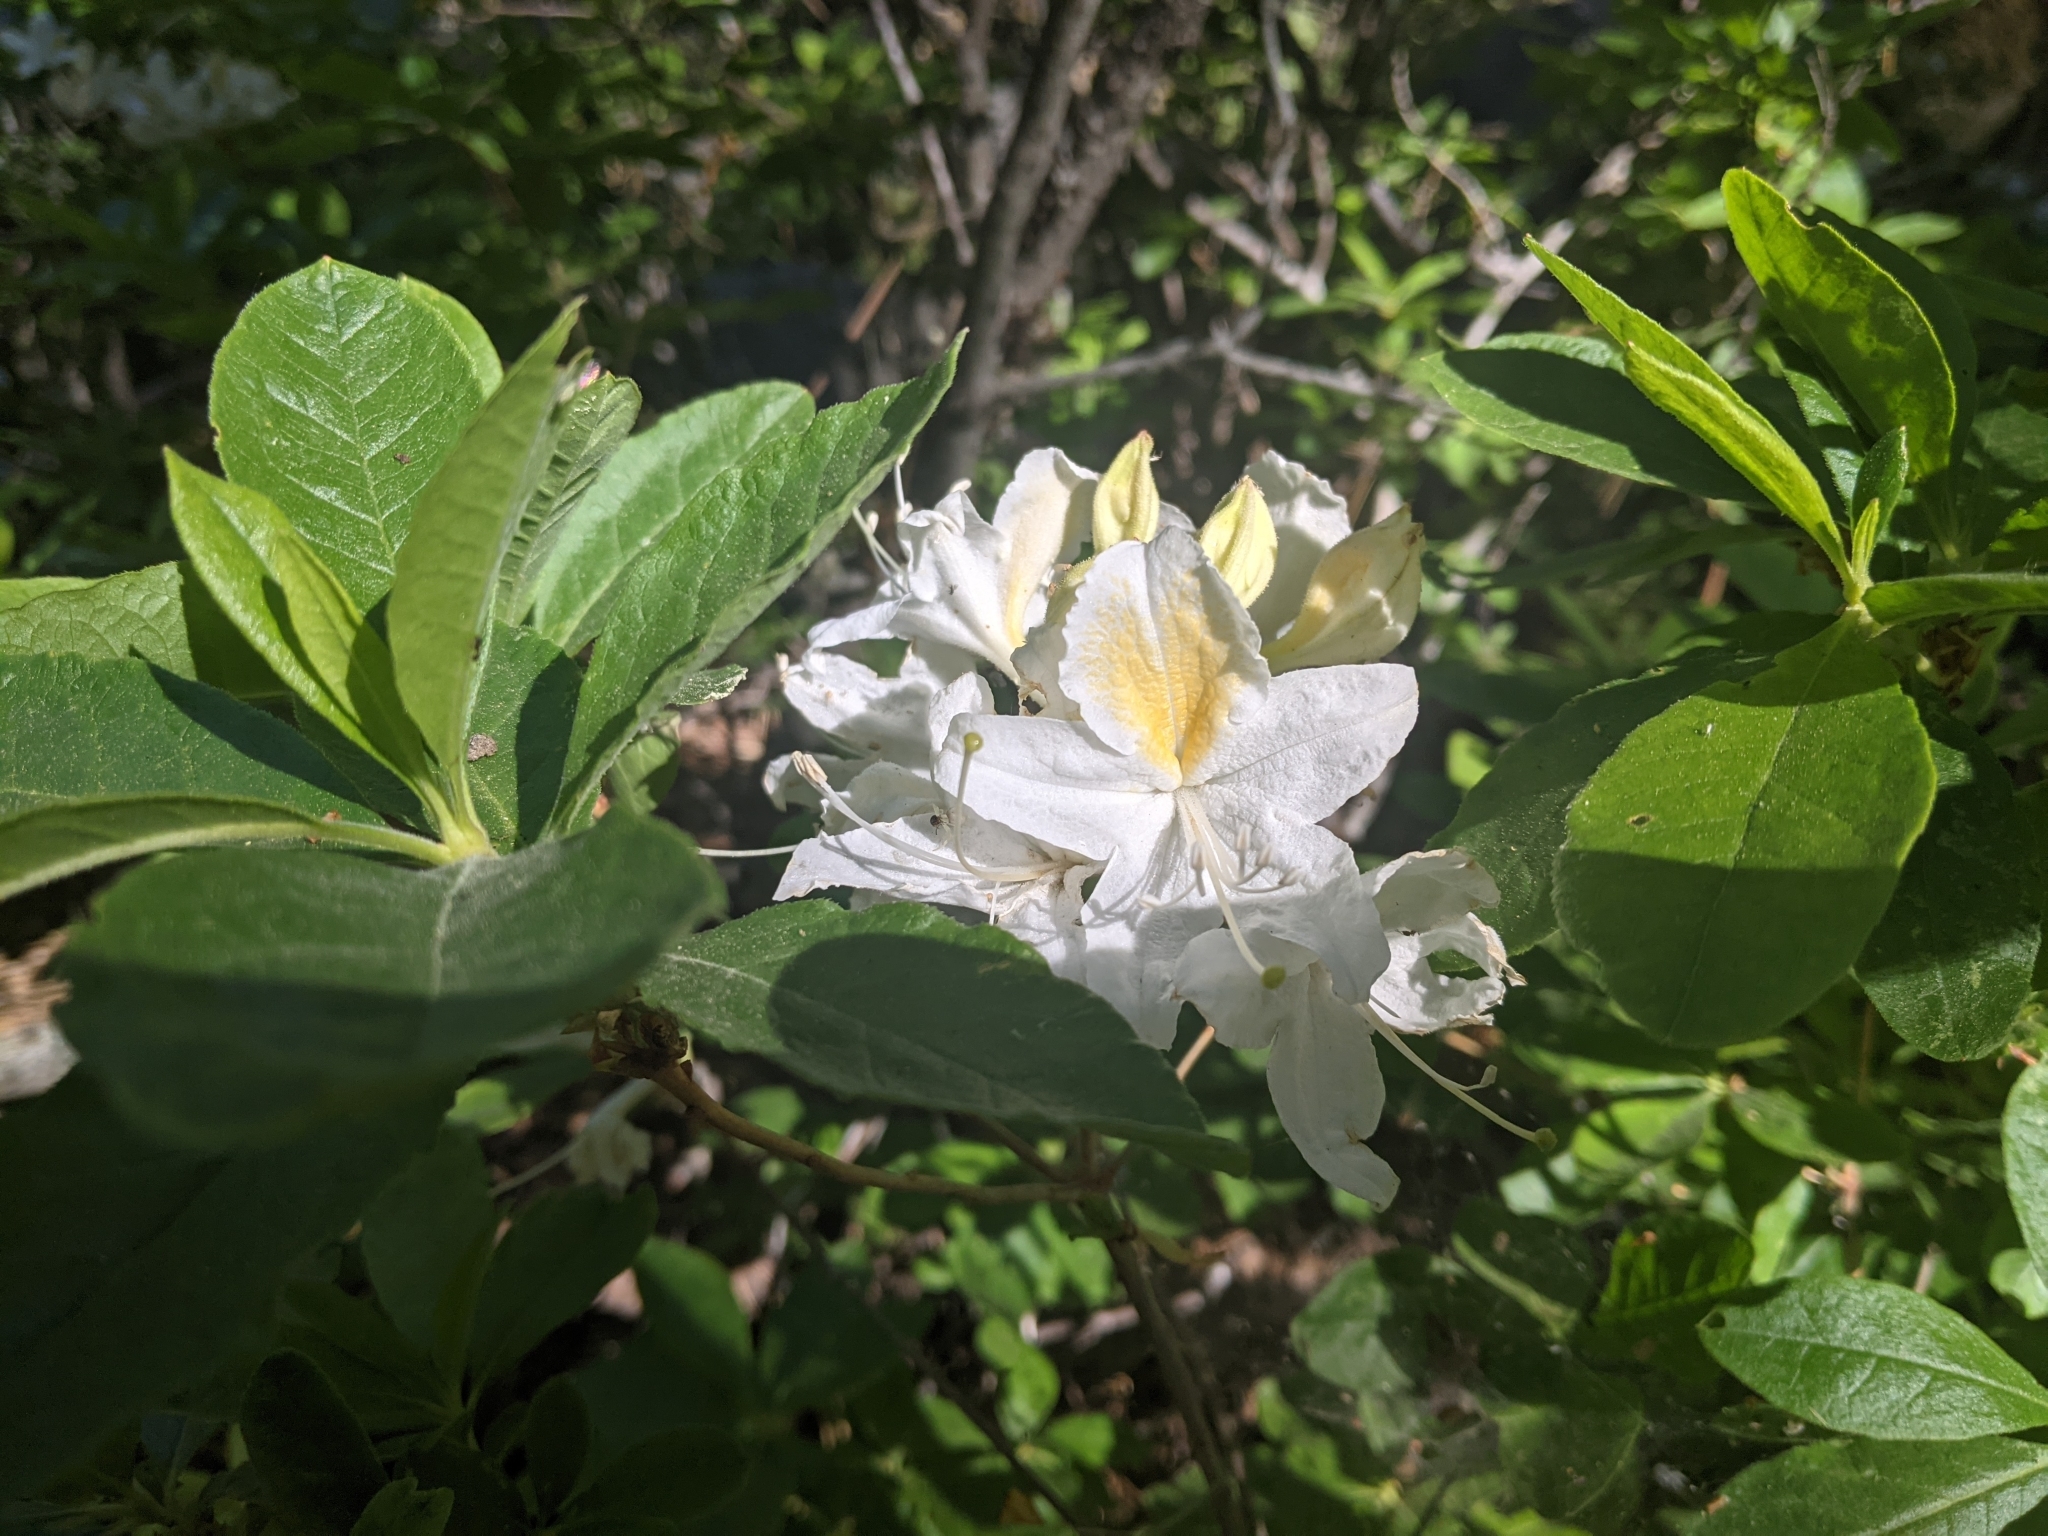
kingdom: Plantae
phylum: Tracheophyta
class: Magnoliopsida
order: Ericales
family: Ericaceae
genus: Rhododendron
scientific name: Rhododendron occidentale
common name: Western azalea
